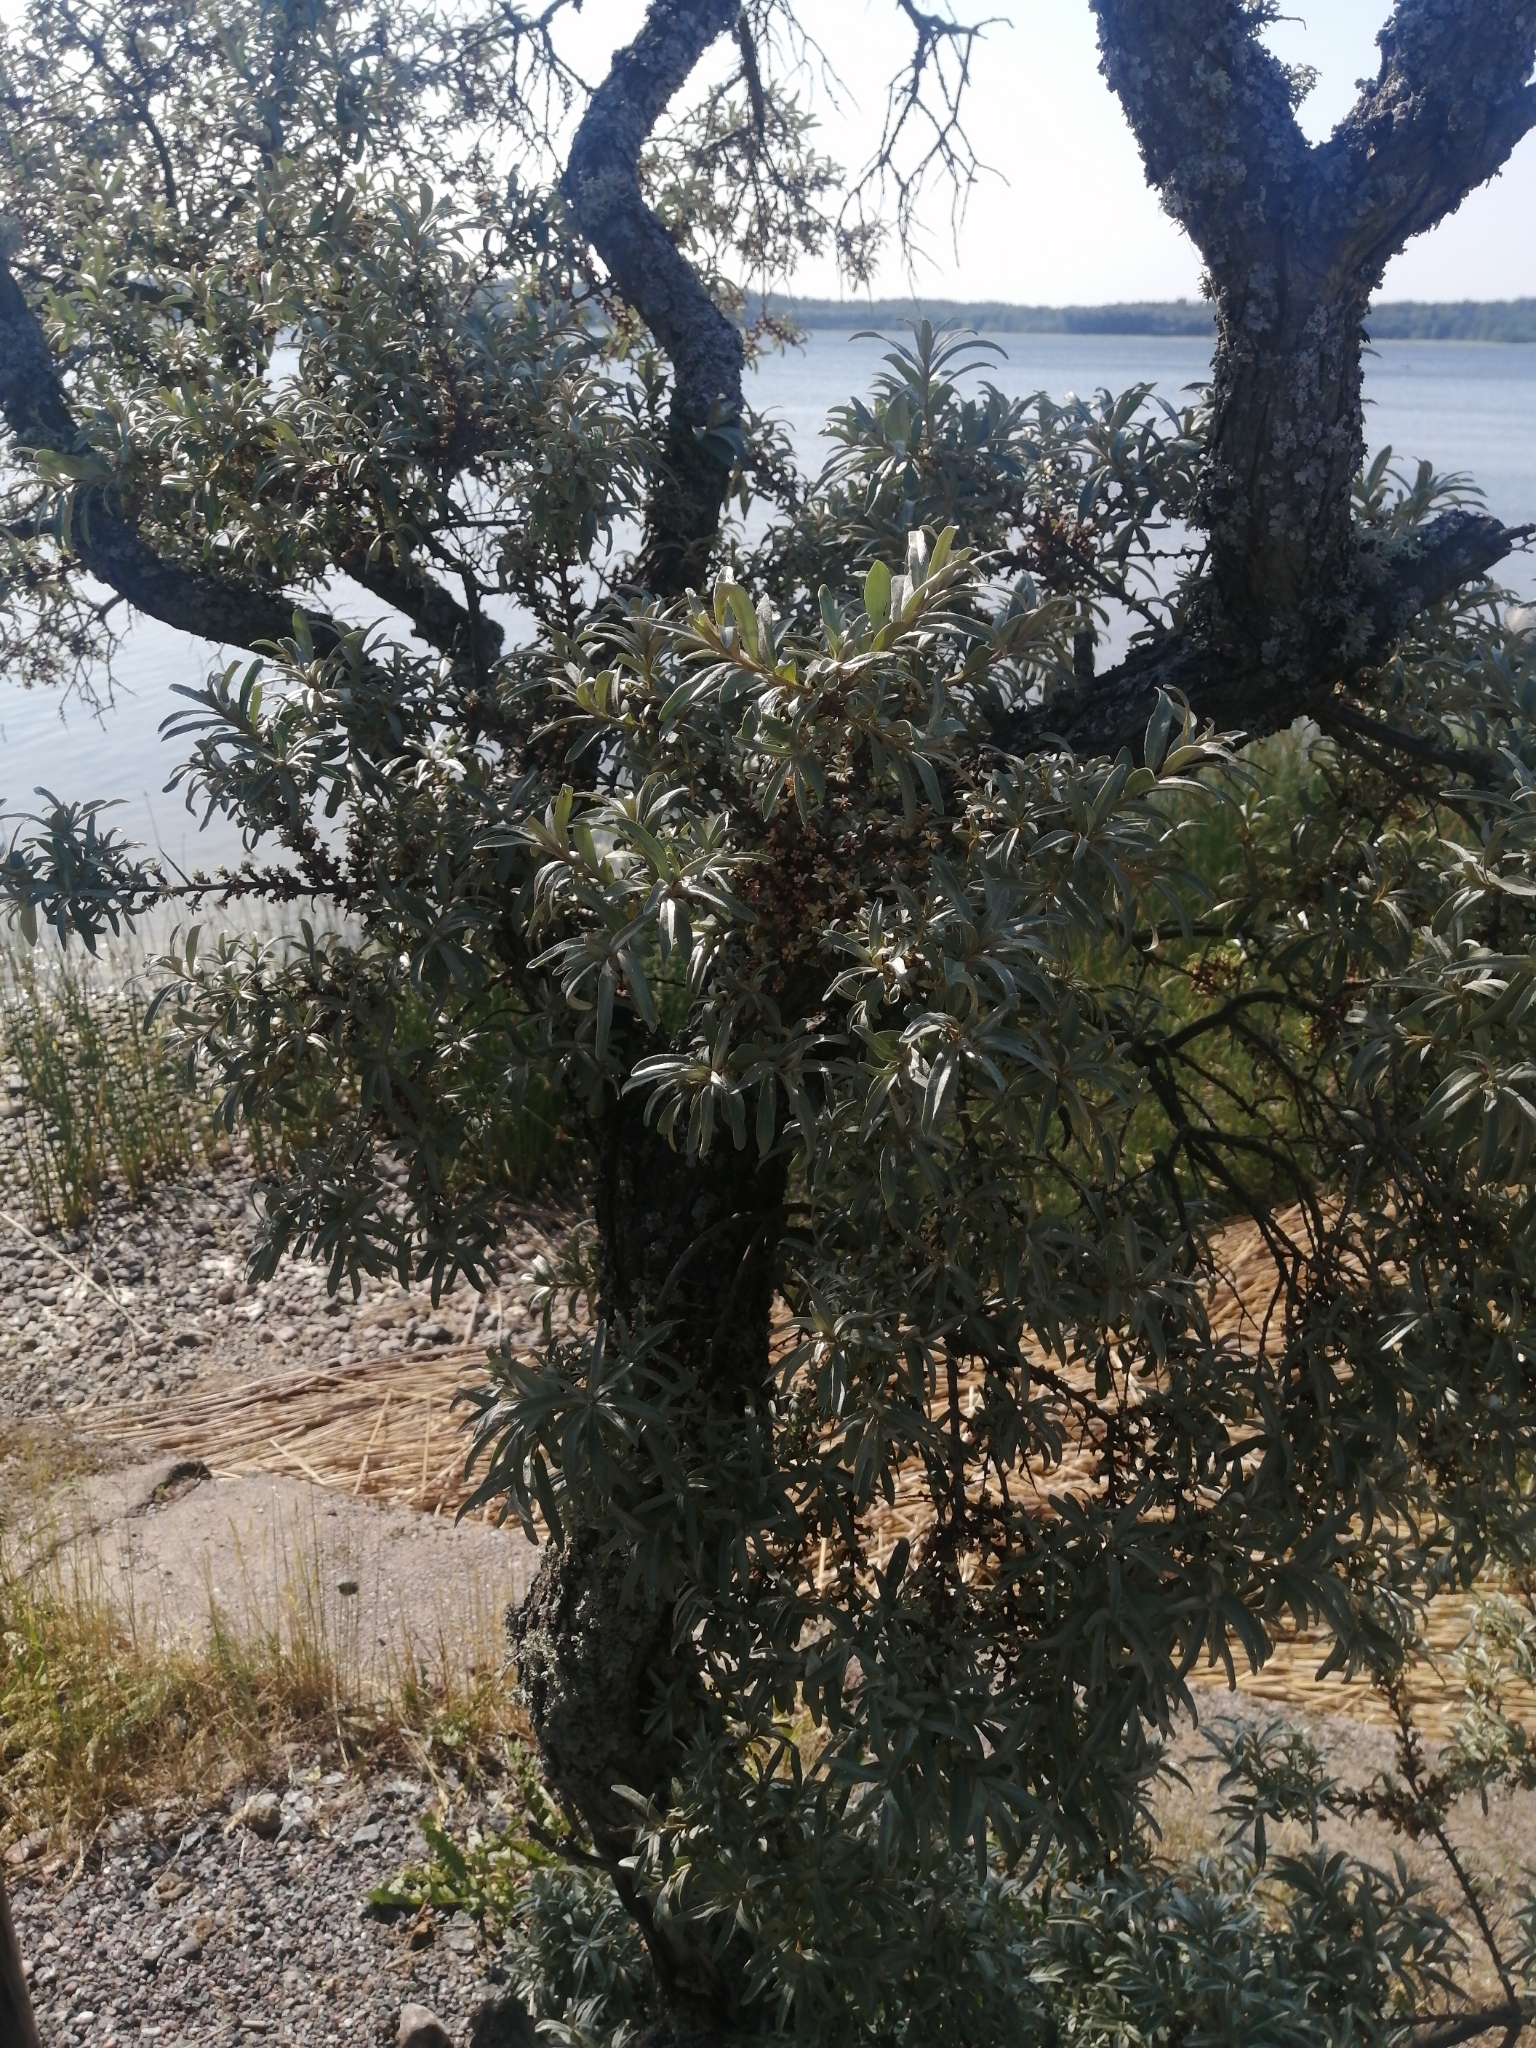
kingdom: Plantae
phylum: Tracheophyta
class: Magnoliopsida
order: Rosales
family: Elaeagnaceae
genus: Hippophae
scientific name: Hippophae rhamnoides
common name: Sea-buckthorn
